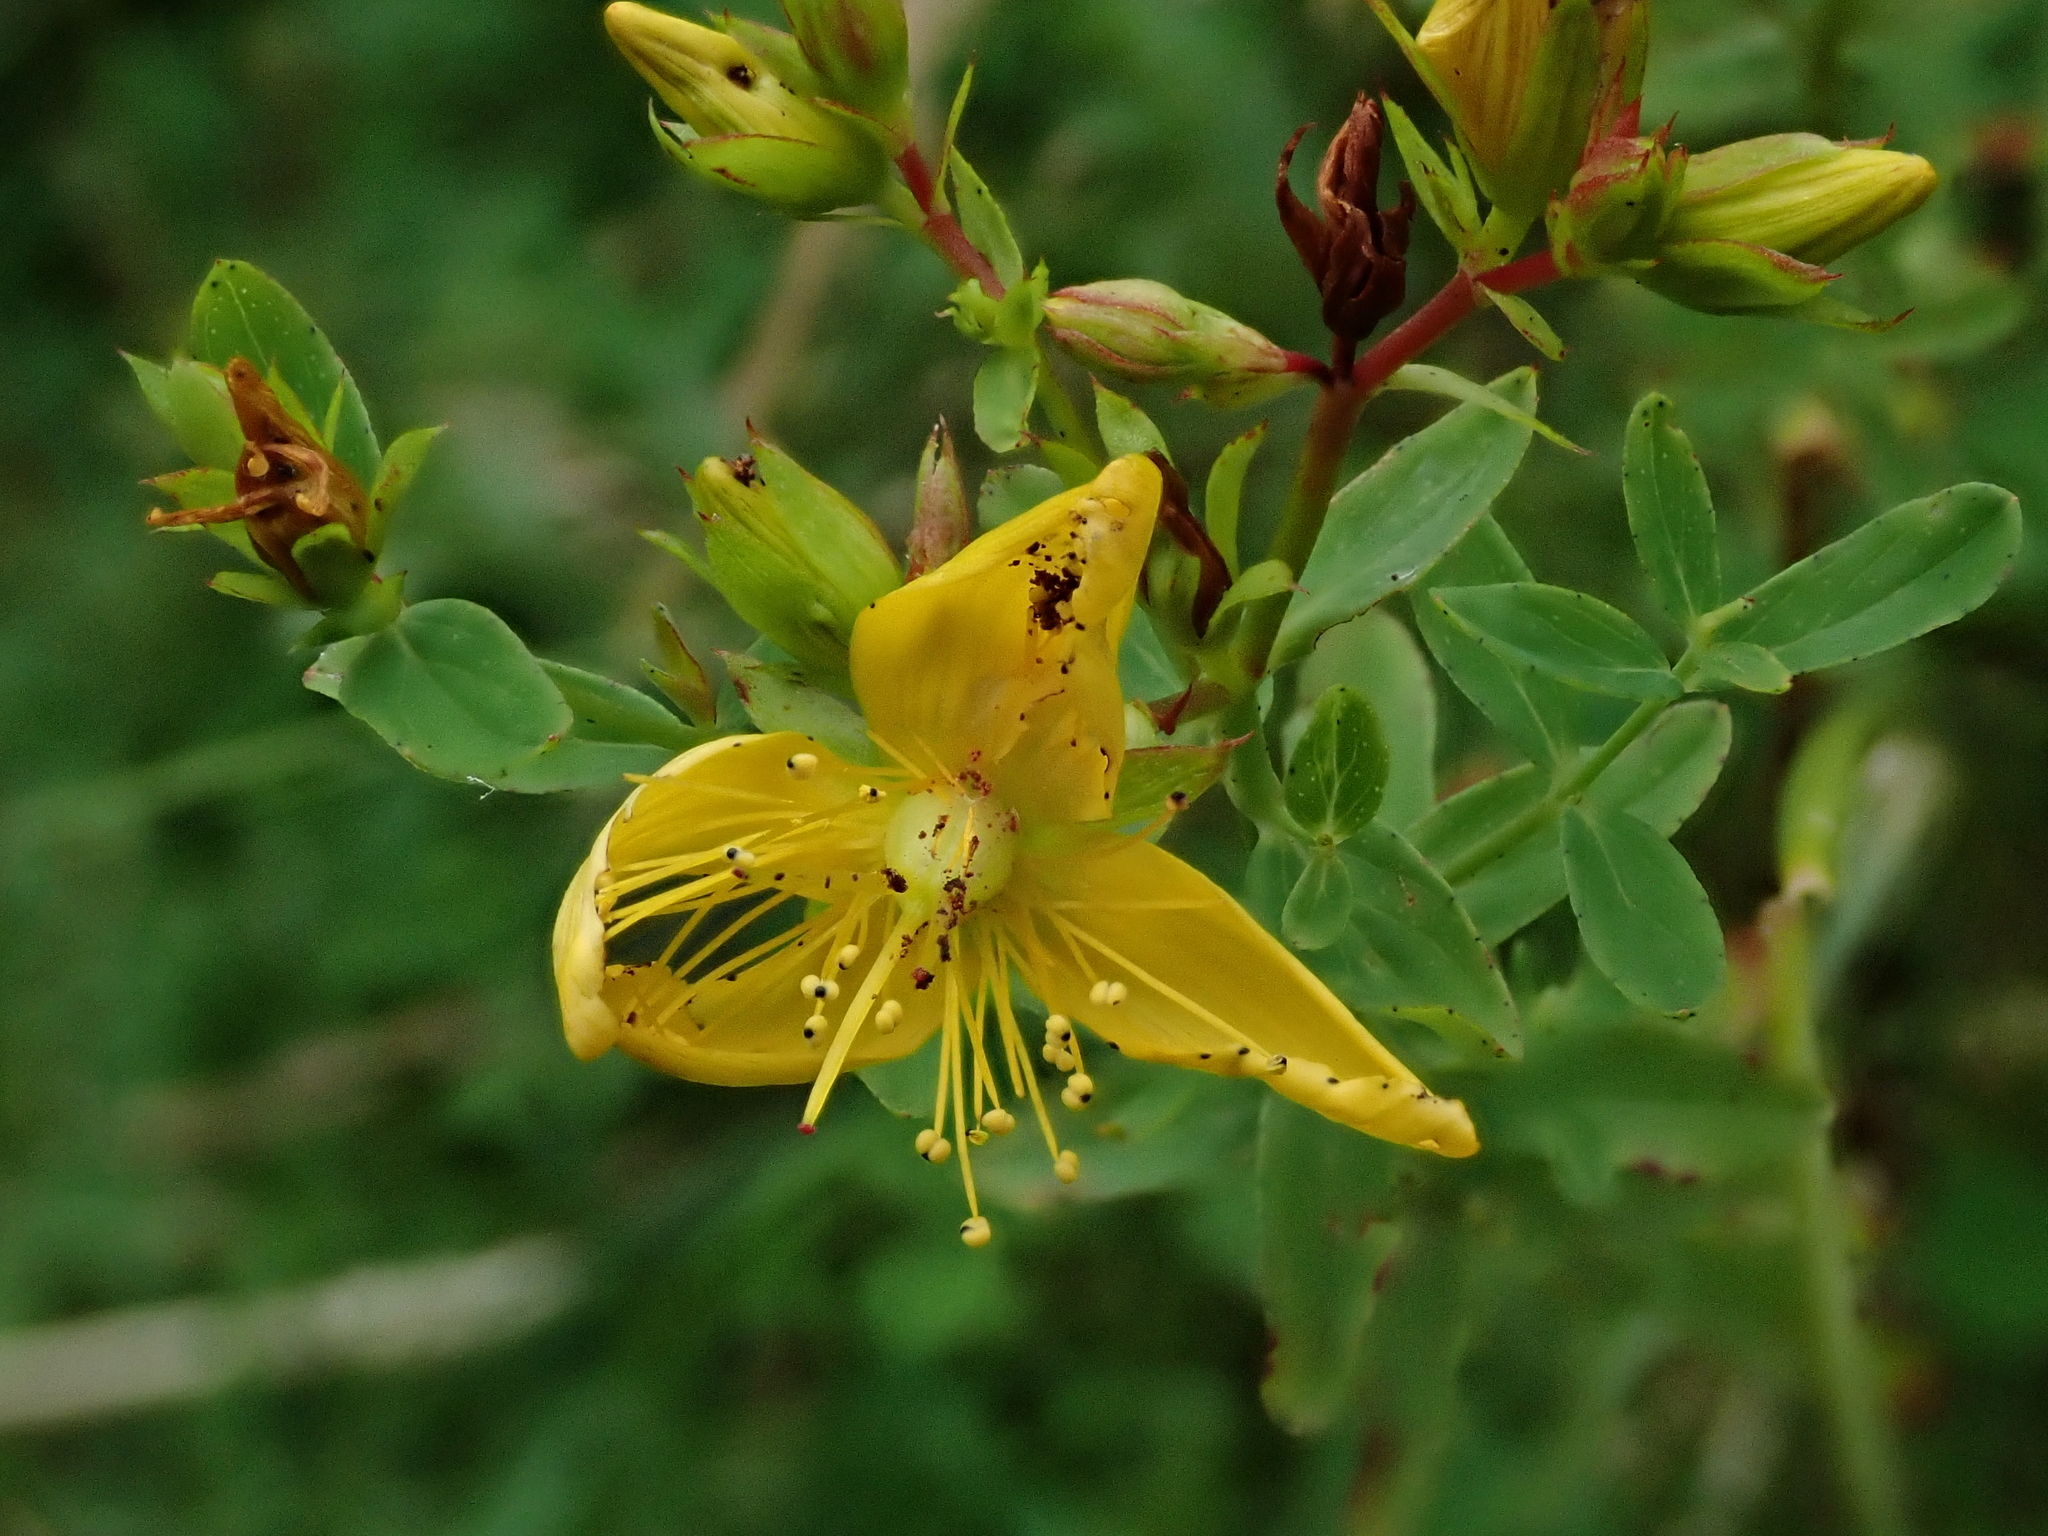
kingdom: Plantae
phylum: Tracheophyta
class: Magnoliopsida
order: Malpighiales
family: Hypericaceae
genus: Hypericum
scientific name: Hypericum perforatum
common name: Common st. johnswort
